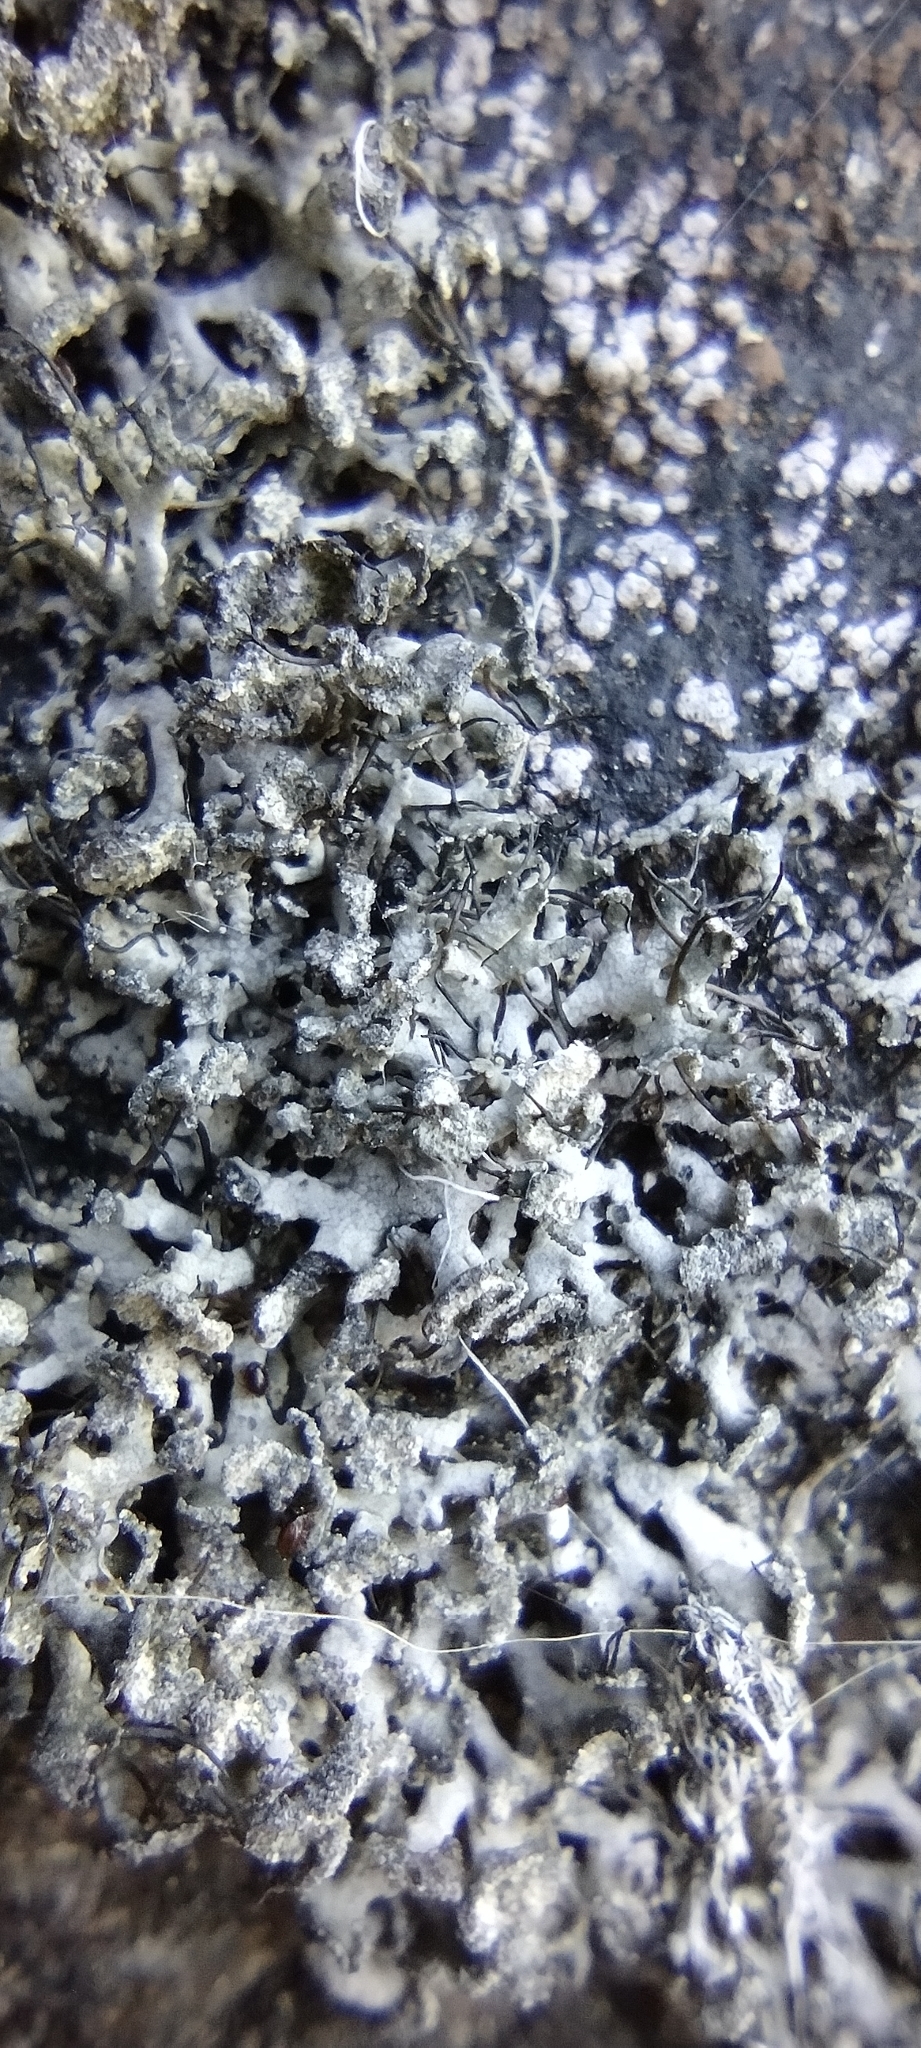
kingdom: Fungi
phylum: Ascomycota
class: Lecanoromycetes
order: Caliciales
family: Physciaceae
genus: Physcia
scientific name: Physcia tenella
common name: Fringed rosette lichen
